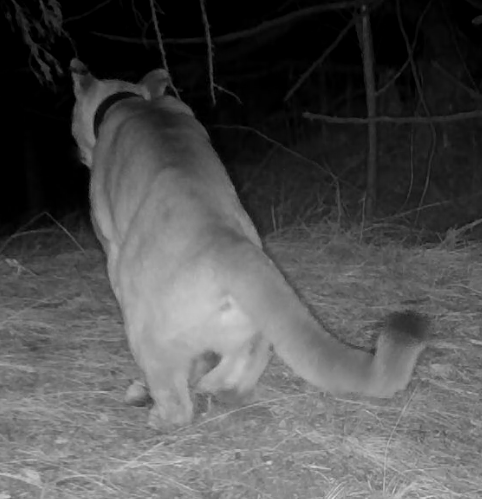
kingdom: Animalia
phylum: Chordata
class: Mammalia
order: Carnivora
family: Felidae
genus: Puma
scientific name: Puma concolor
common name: Puma
